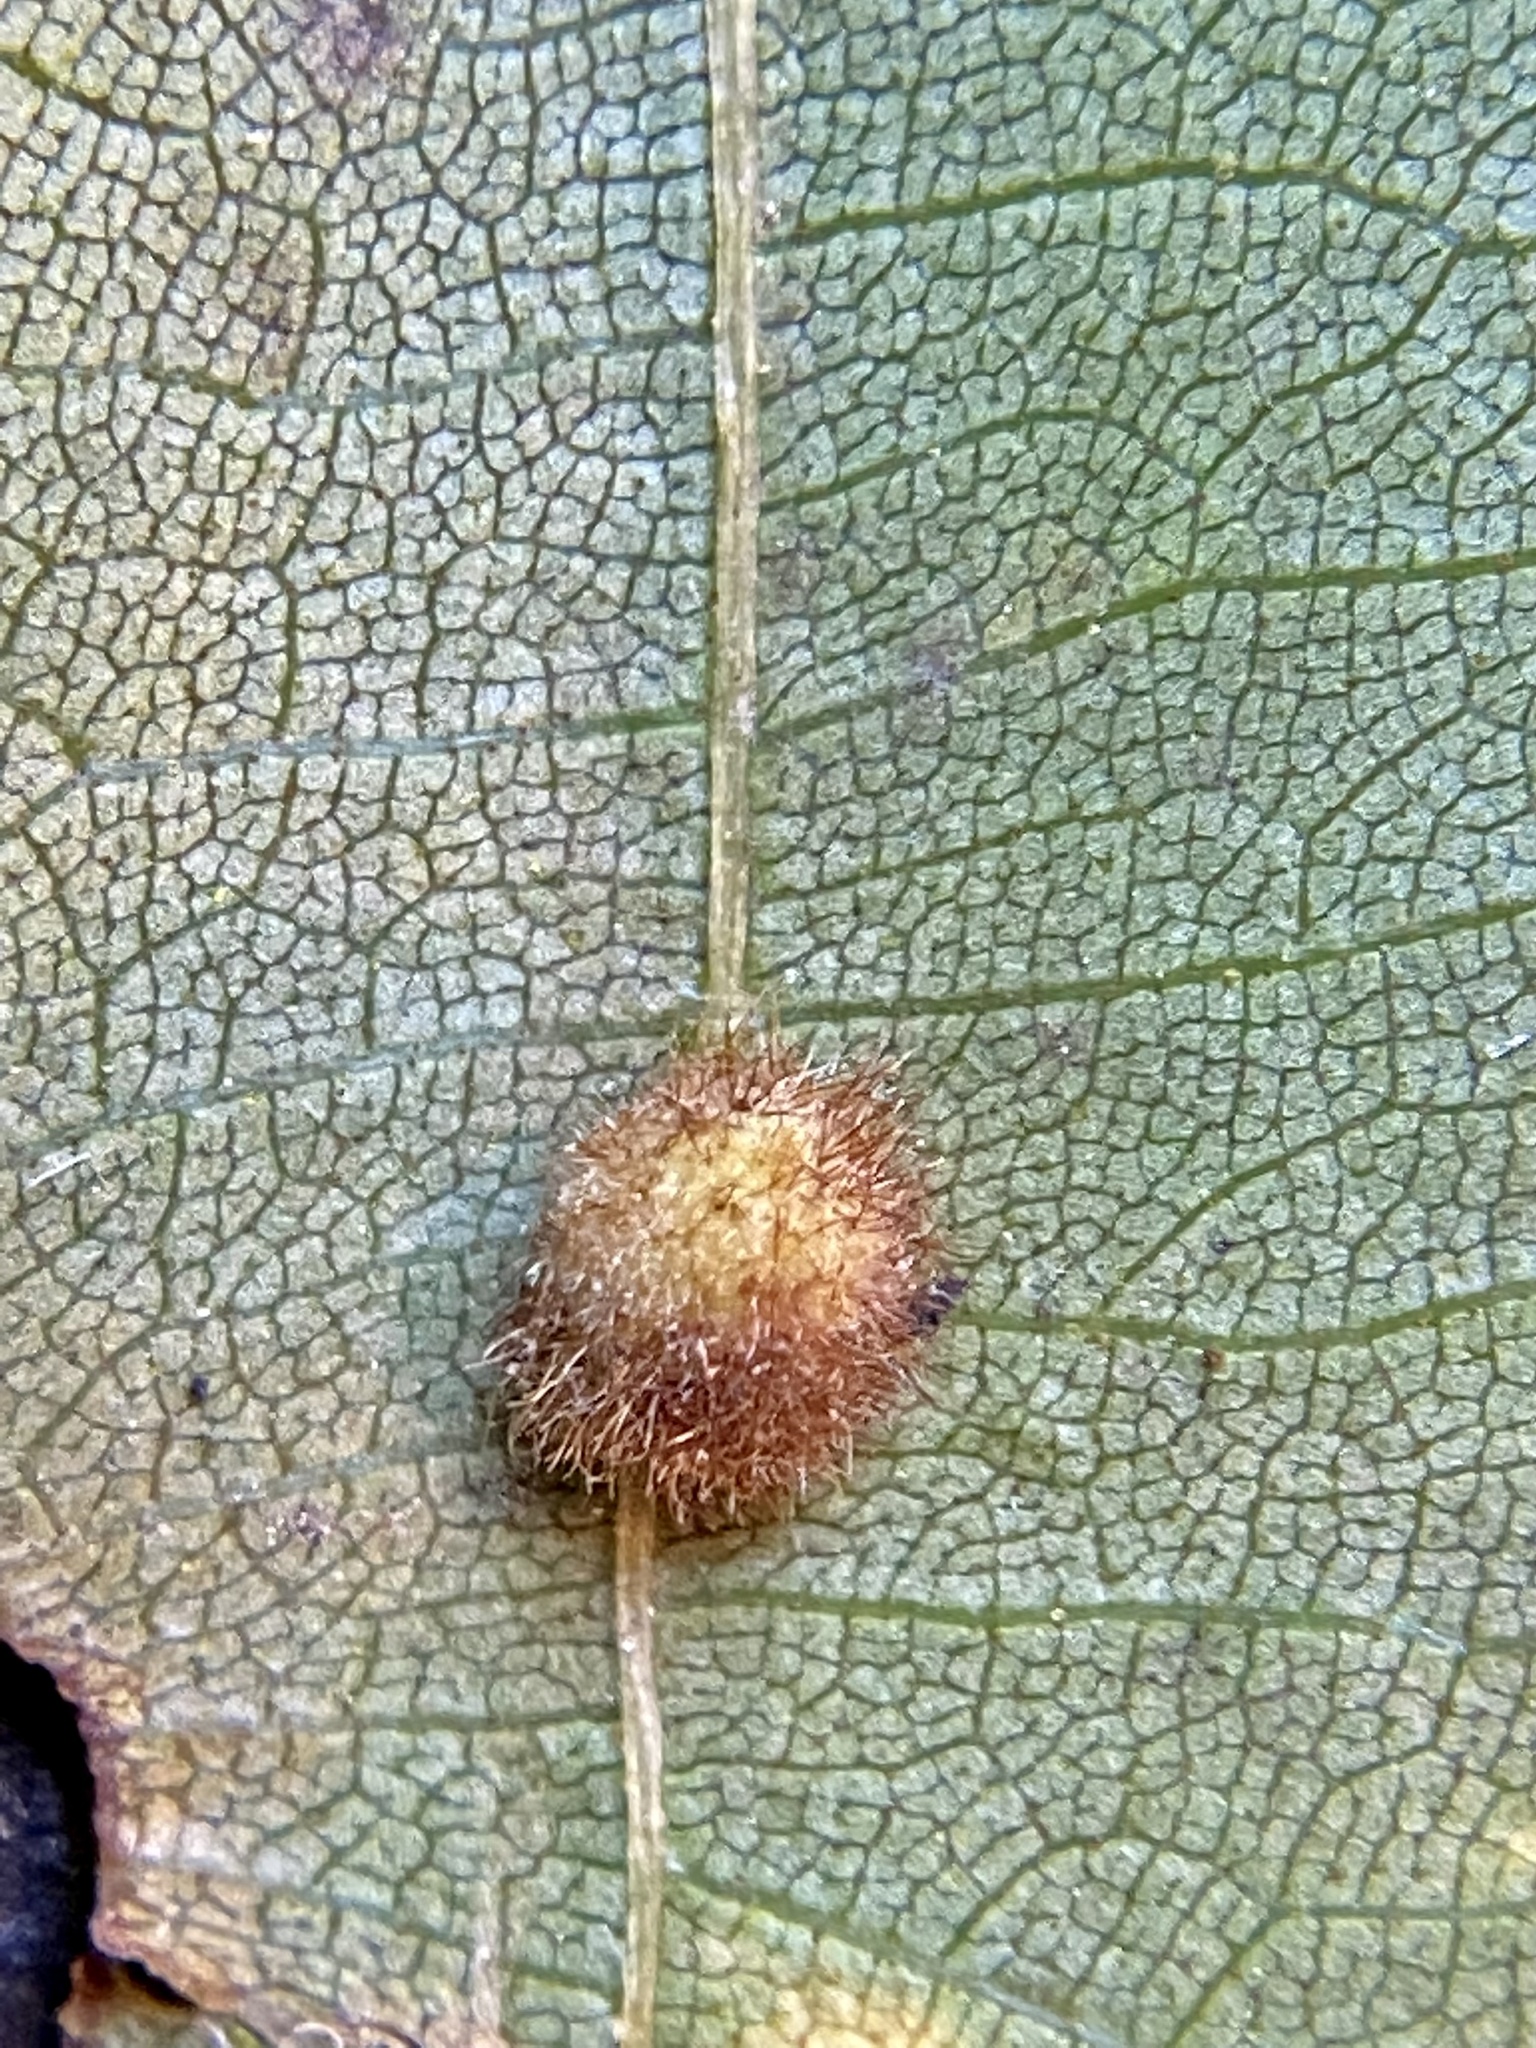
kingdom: Animalia
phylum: Arthropoda
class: Insecta
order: Diptera
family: Cecidomyiidae
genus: Caryomyia
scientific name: Caryomyia spherica
